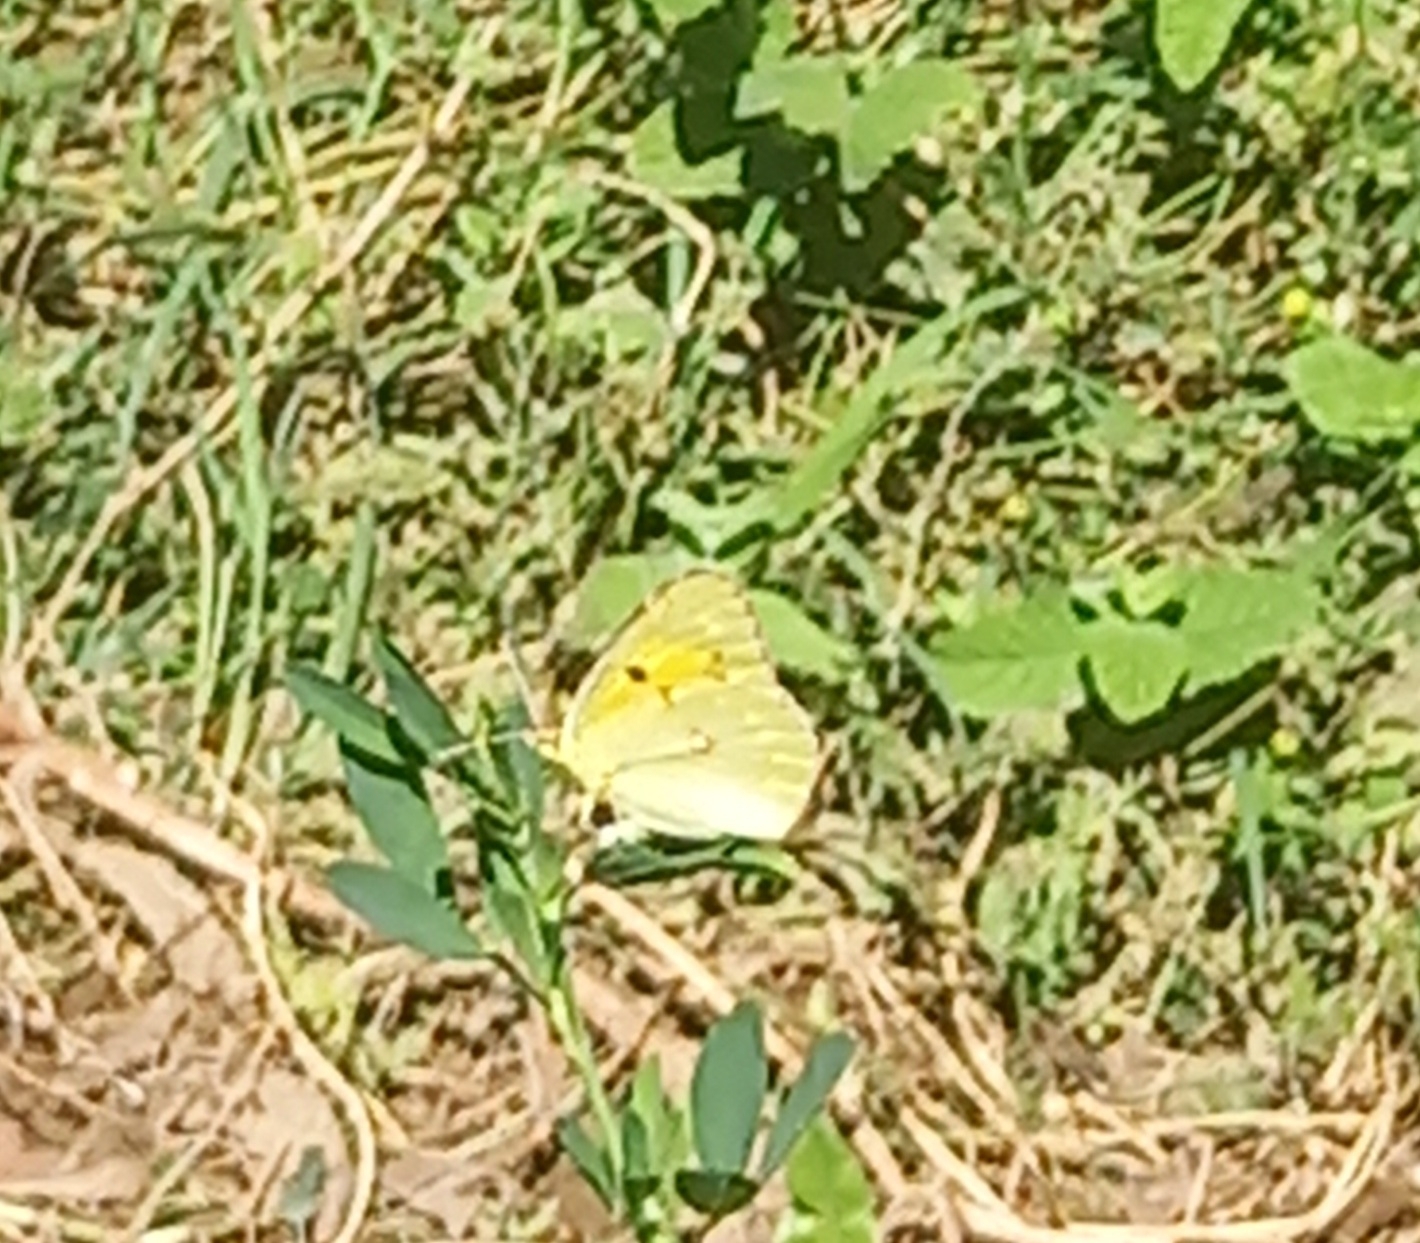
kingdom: Animalia
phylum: Arthropoda
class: Insecta
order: Lepidoptera
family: Pieridae
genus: Colias
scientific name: Colias croceus
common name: Clouded yellow
